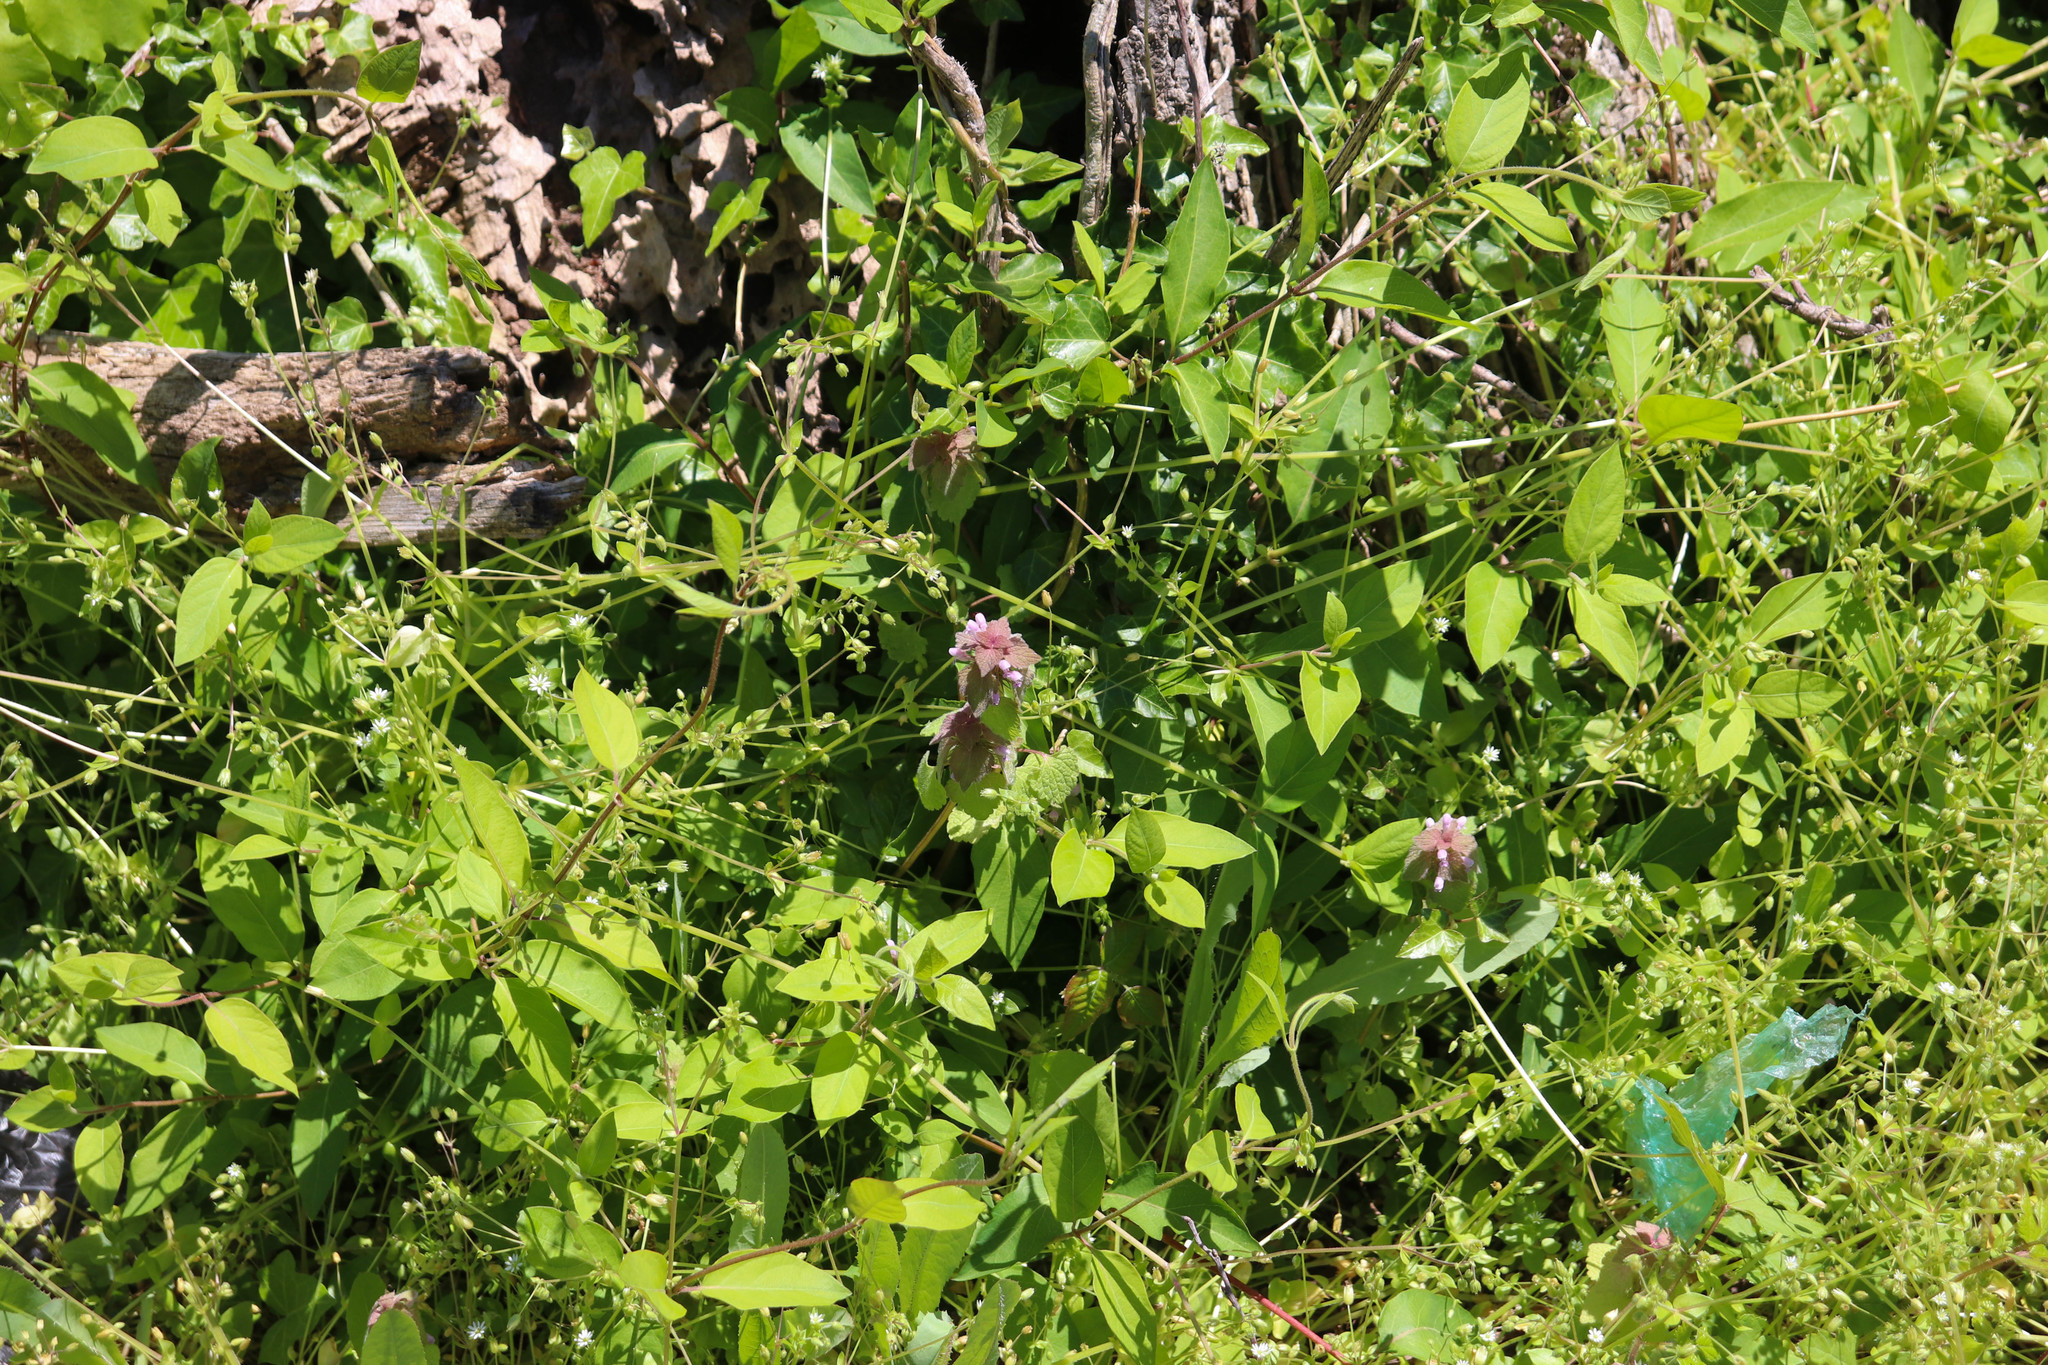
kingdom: Plantae
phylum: Tracheophyta
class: Magnoliopsida
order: Lamiales
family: Lamiaceae
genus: Lamium
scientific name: Lamium purpureum
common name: Red dead-nettle
